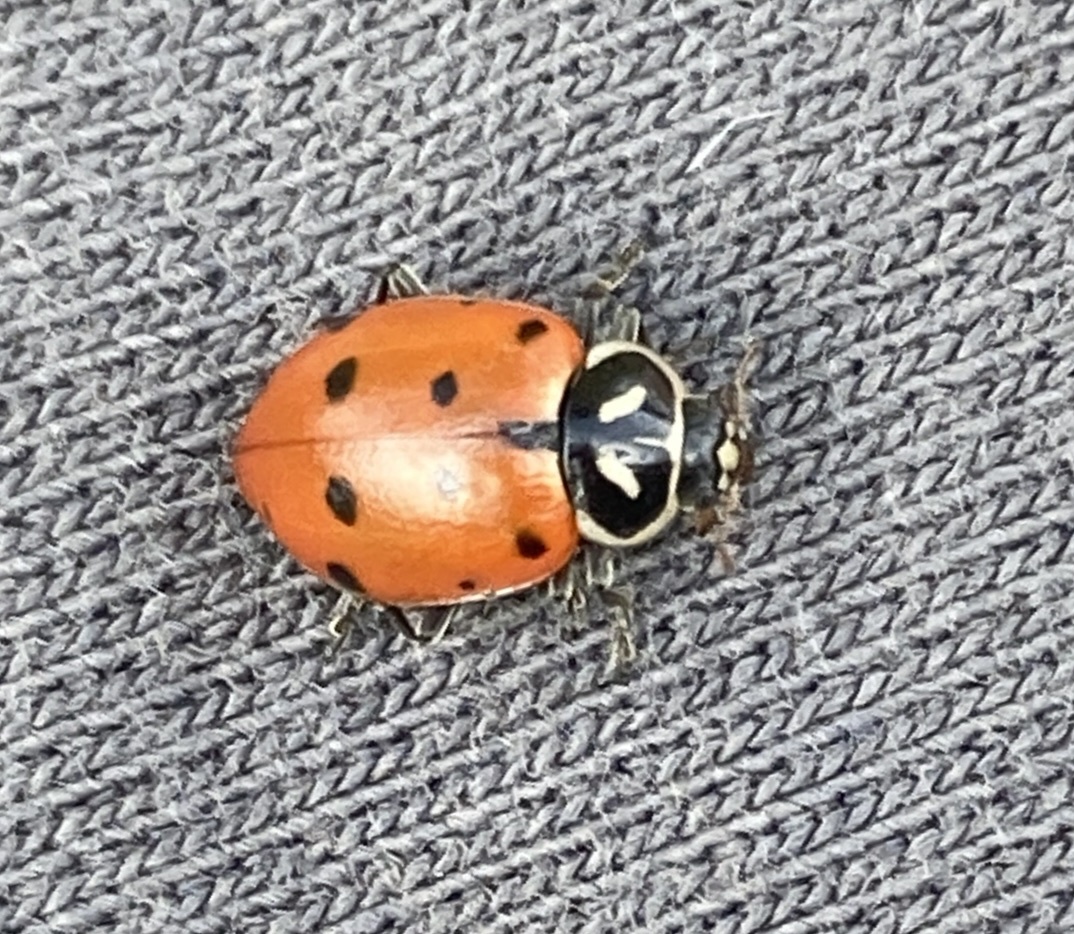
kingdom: Animalia
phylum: Arthropoda
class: Insecta
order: Coleoptera
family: Coccinellidae
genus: Hippodamia
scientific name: Hippodamia convergens
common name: Convergent lady beetle
